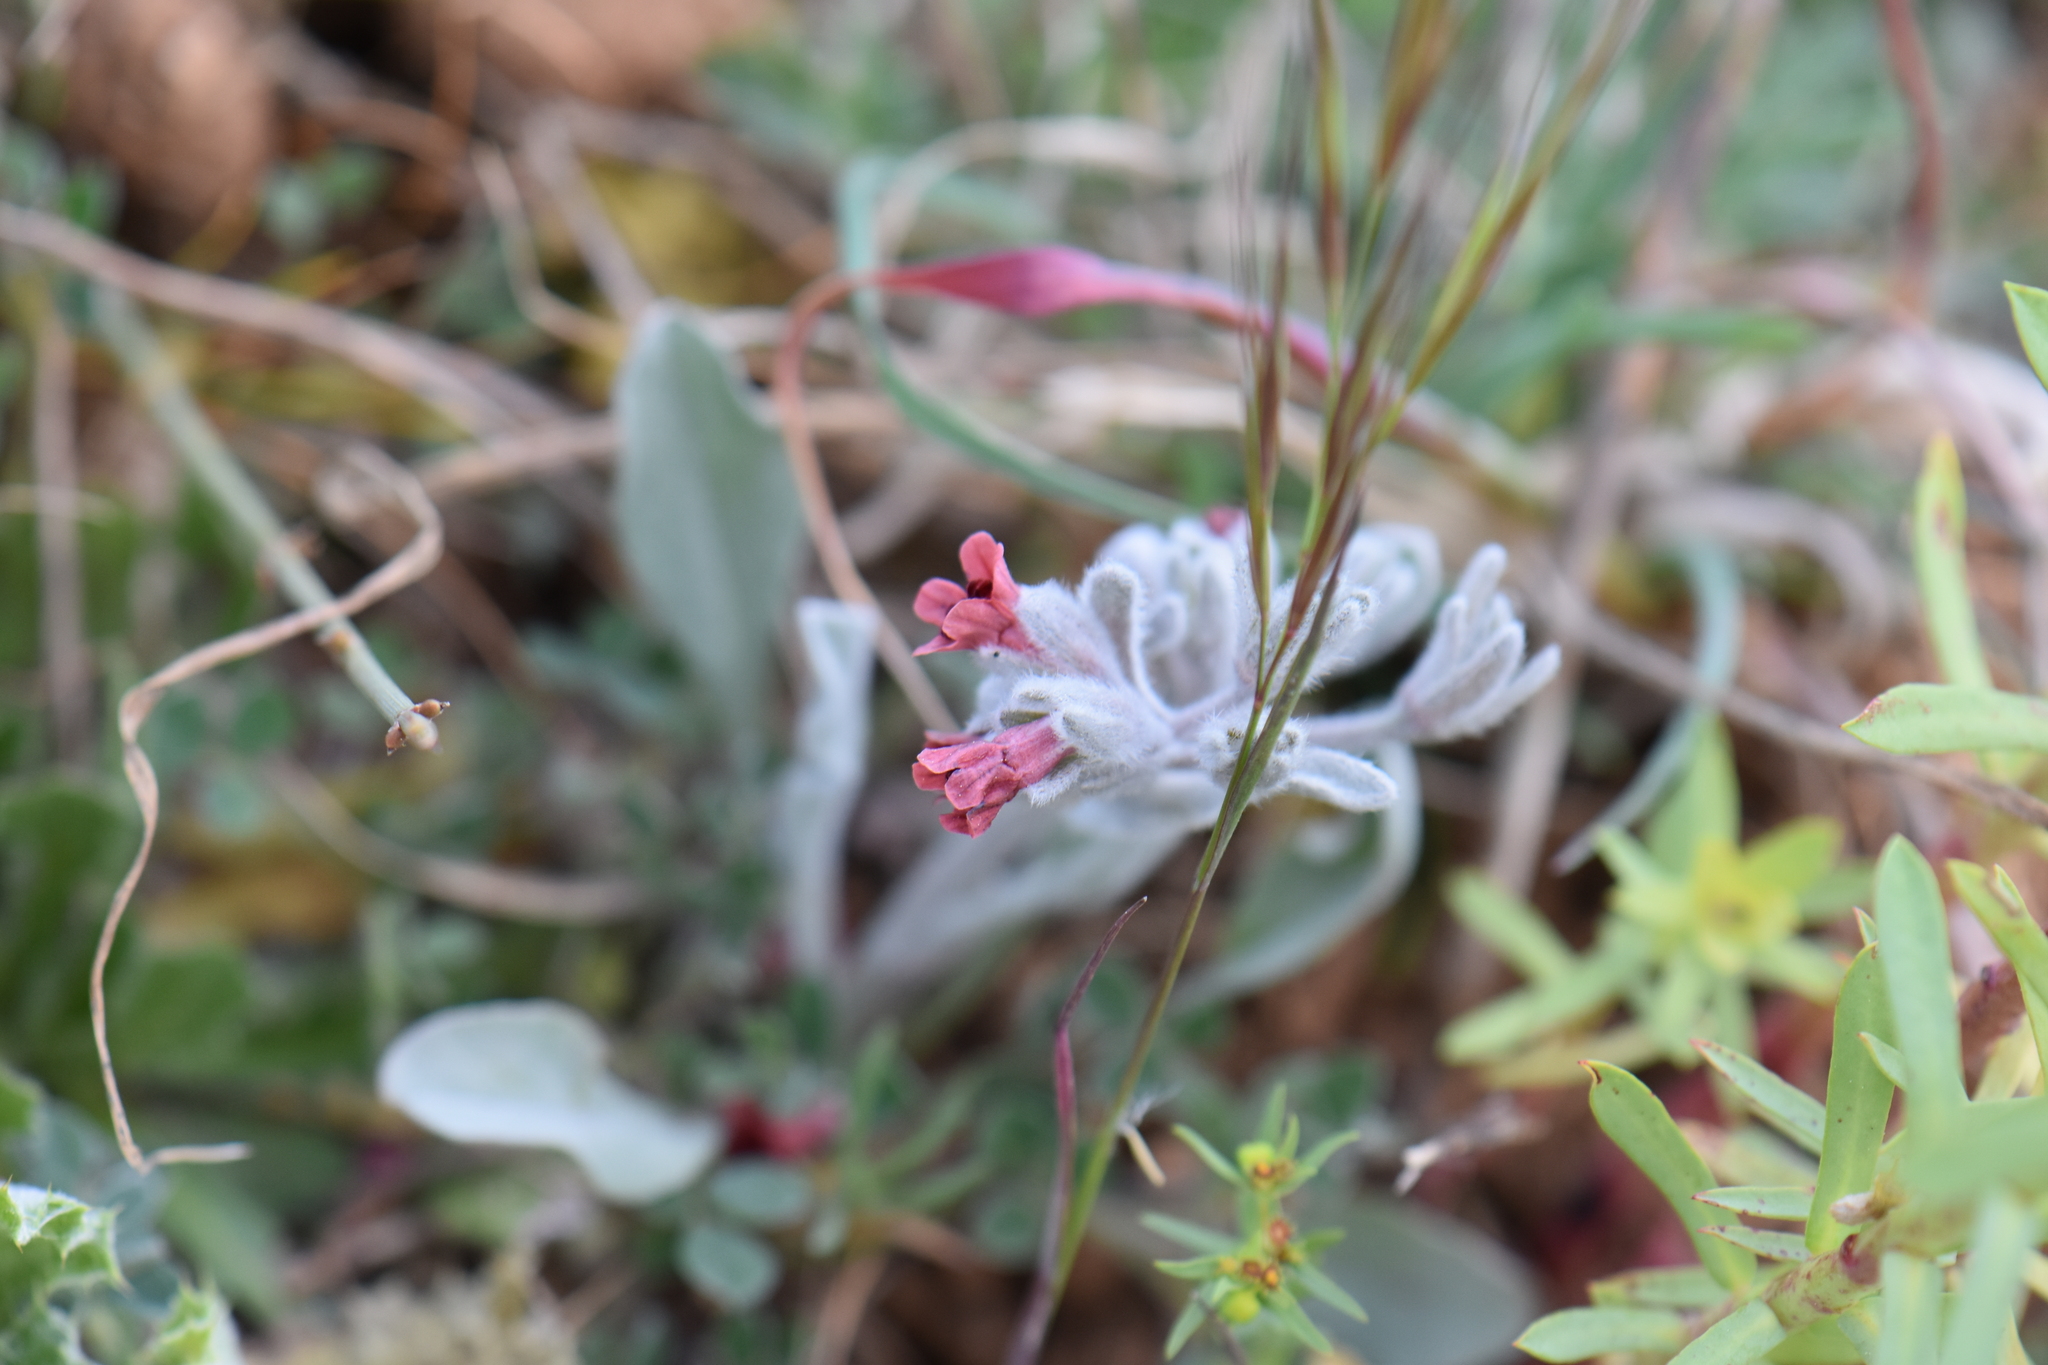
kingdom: Plantae
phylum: Tracheophyta
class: Magnoliopsida
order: Boraginales
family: Boraginaceae
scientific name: Boraginaceae
